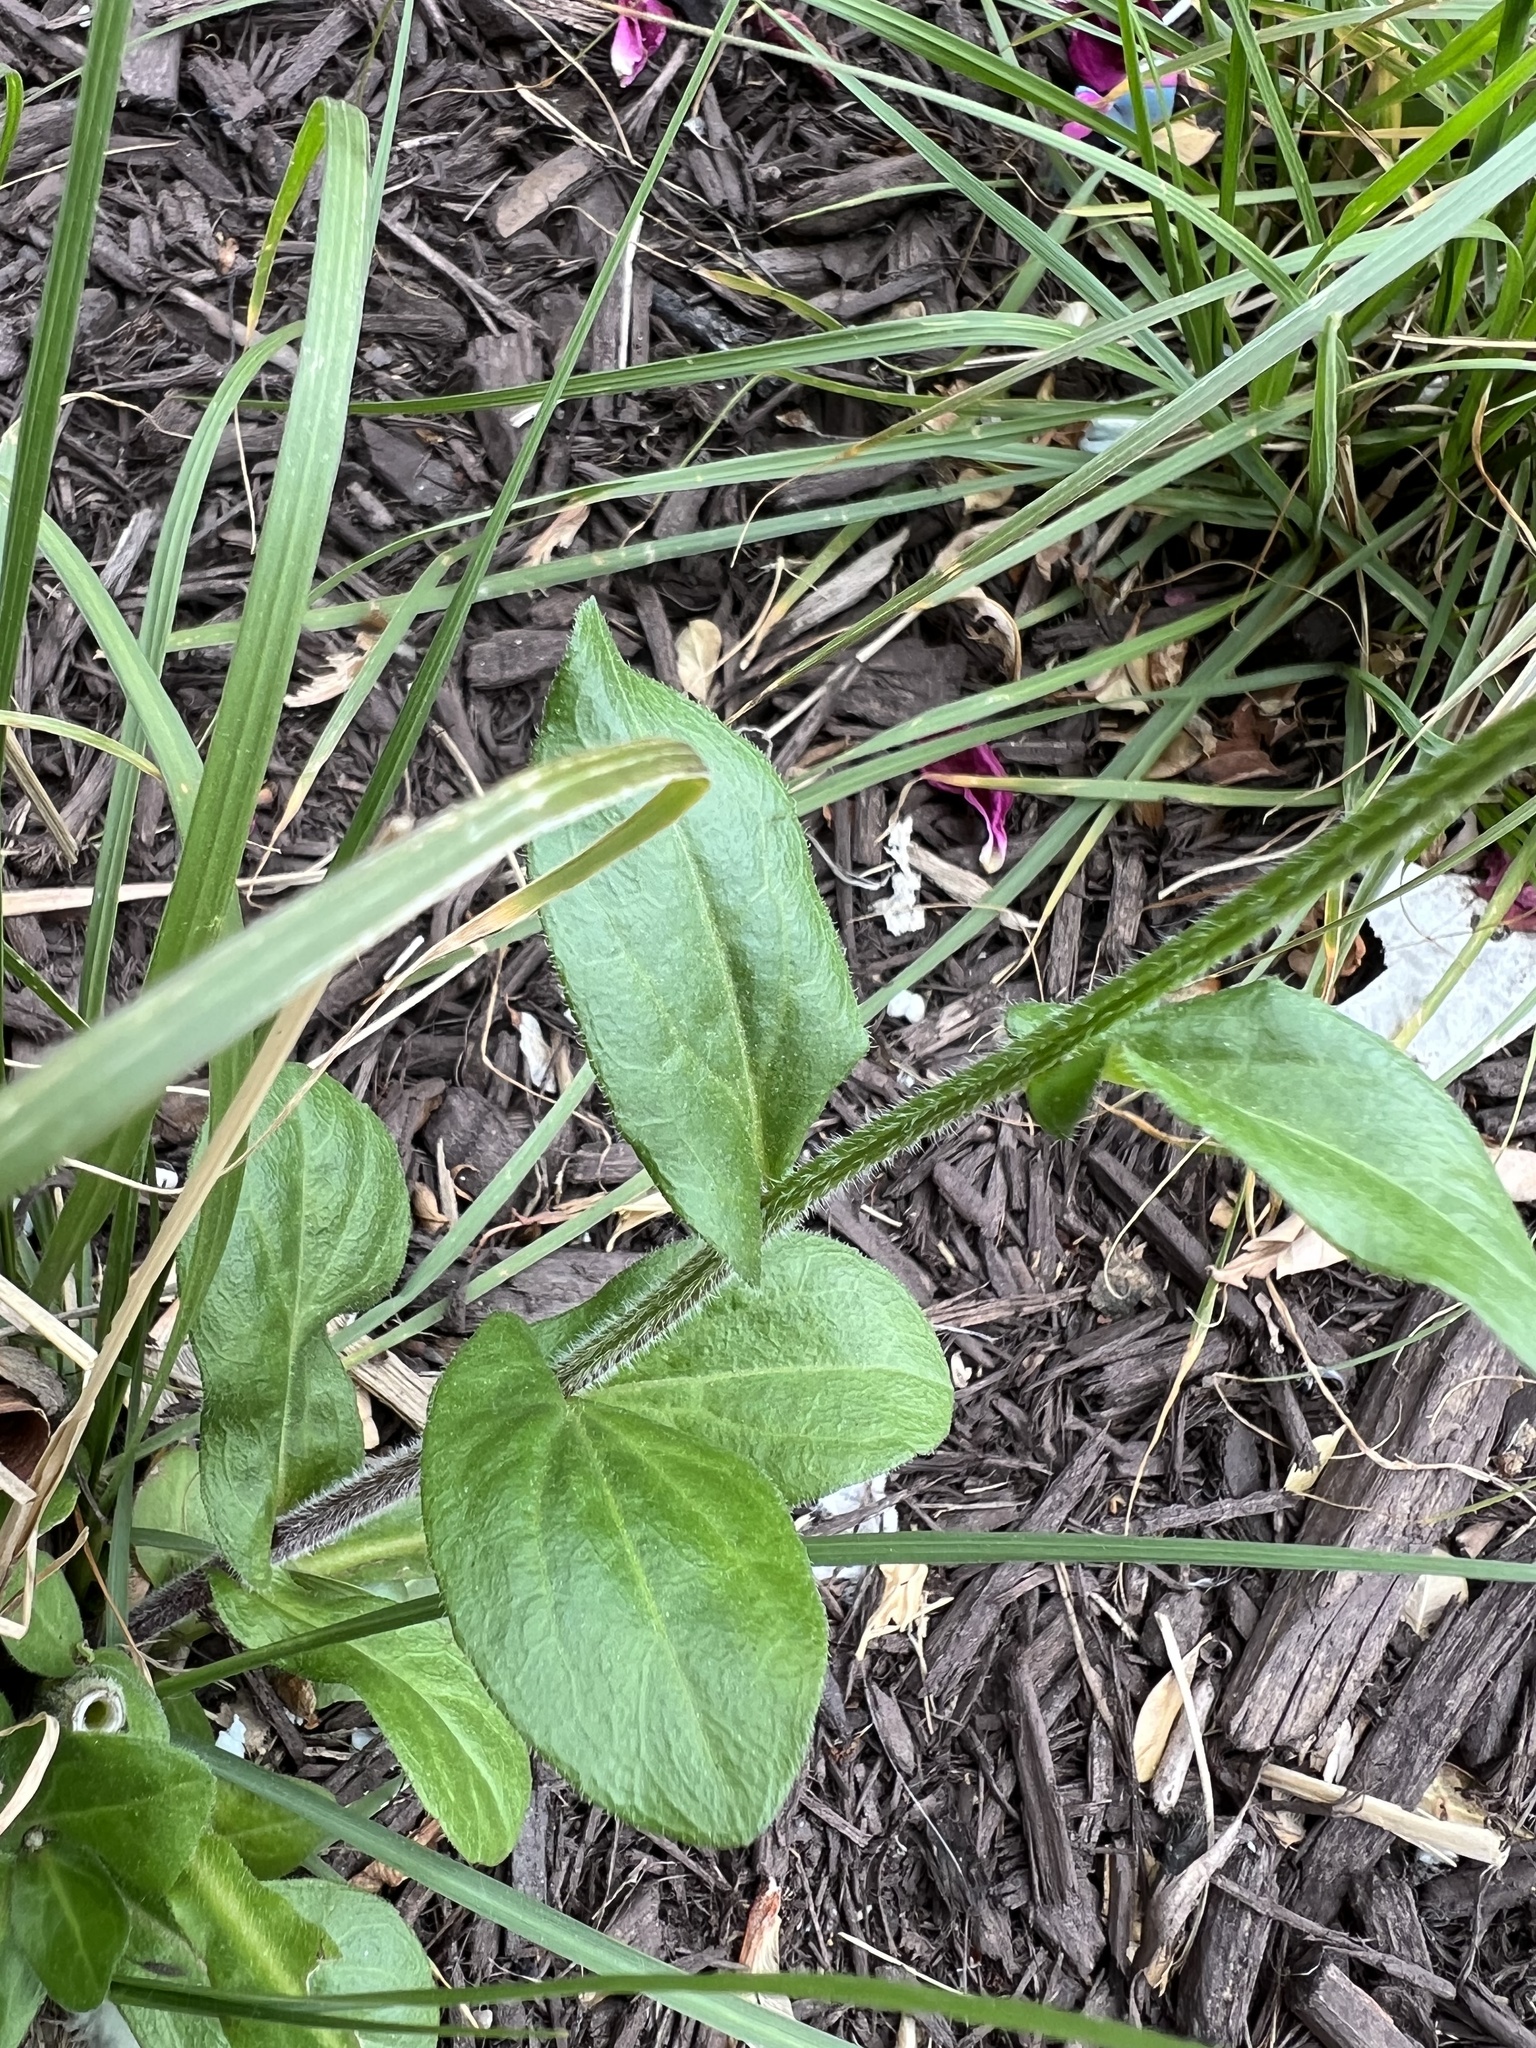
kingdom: Plantae
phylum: Tracheophyta
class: Magnoliopsida
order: Asterales
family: Asteraceae
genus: Erigeron
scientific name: Erigeron philadelphicus
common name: Robin's-plantain
